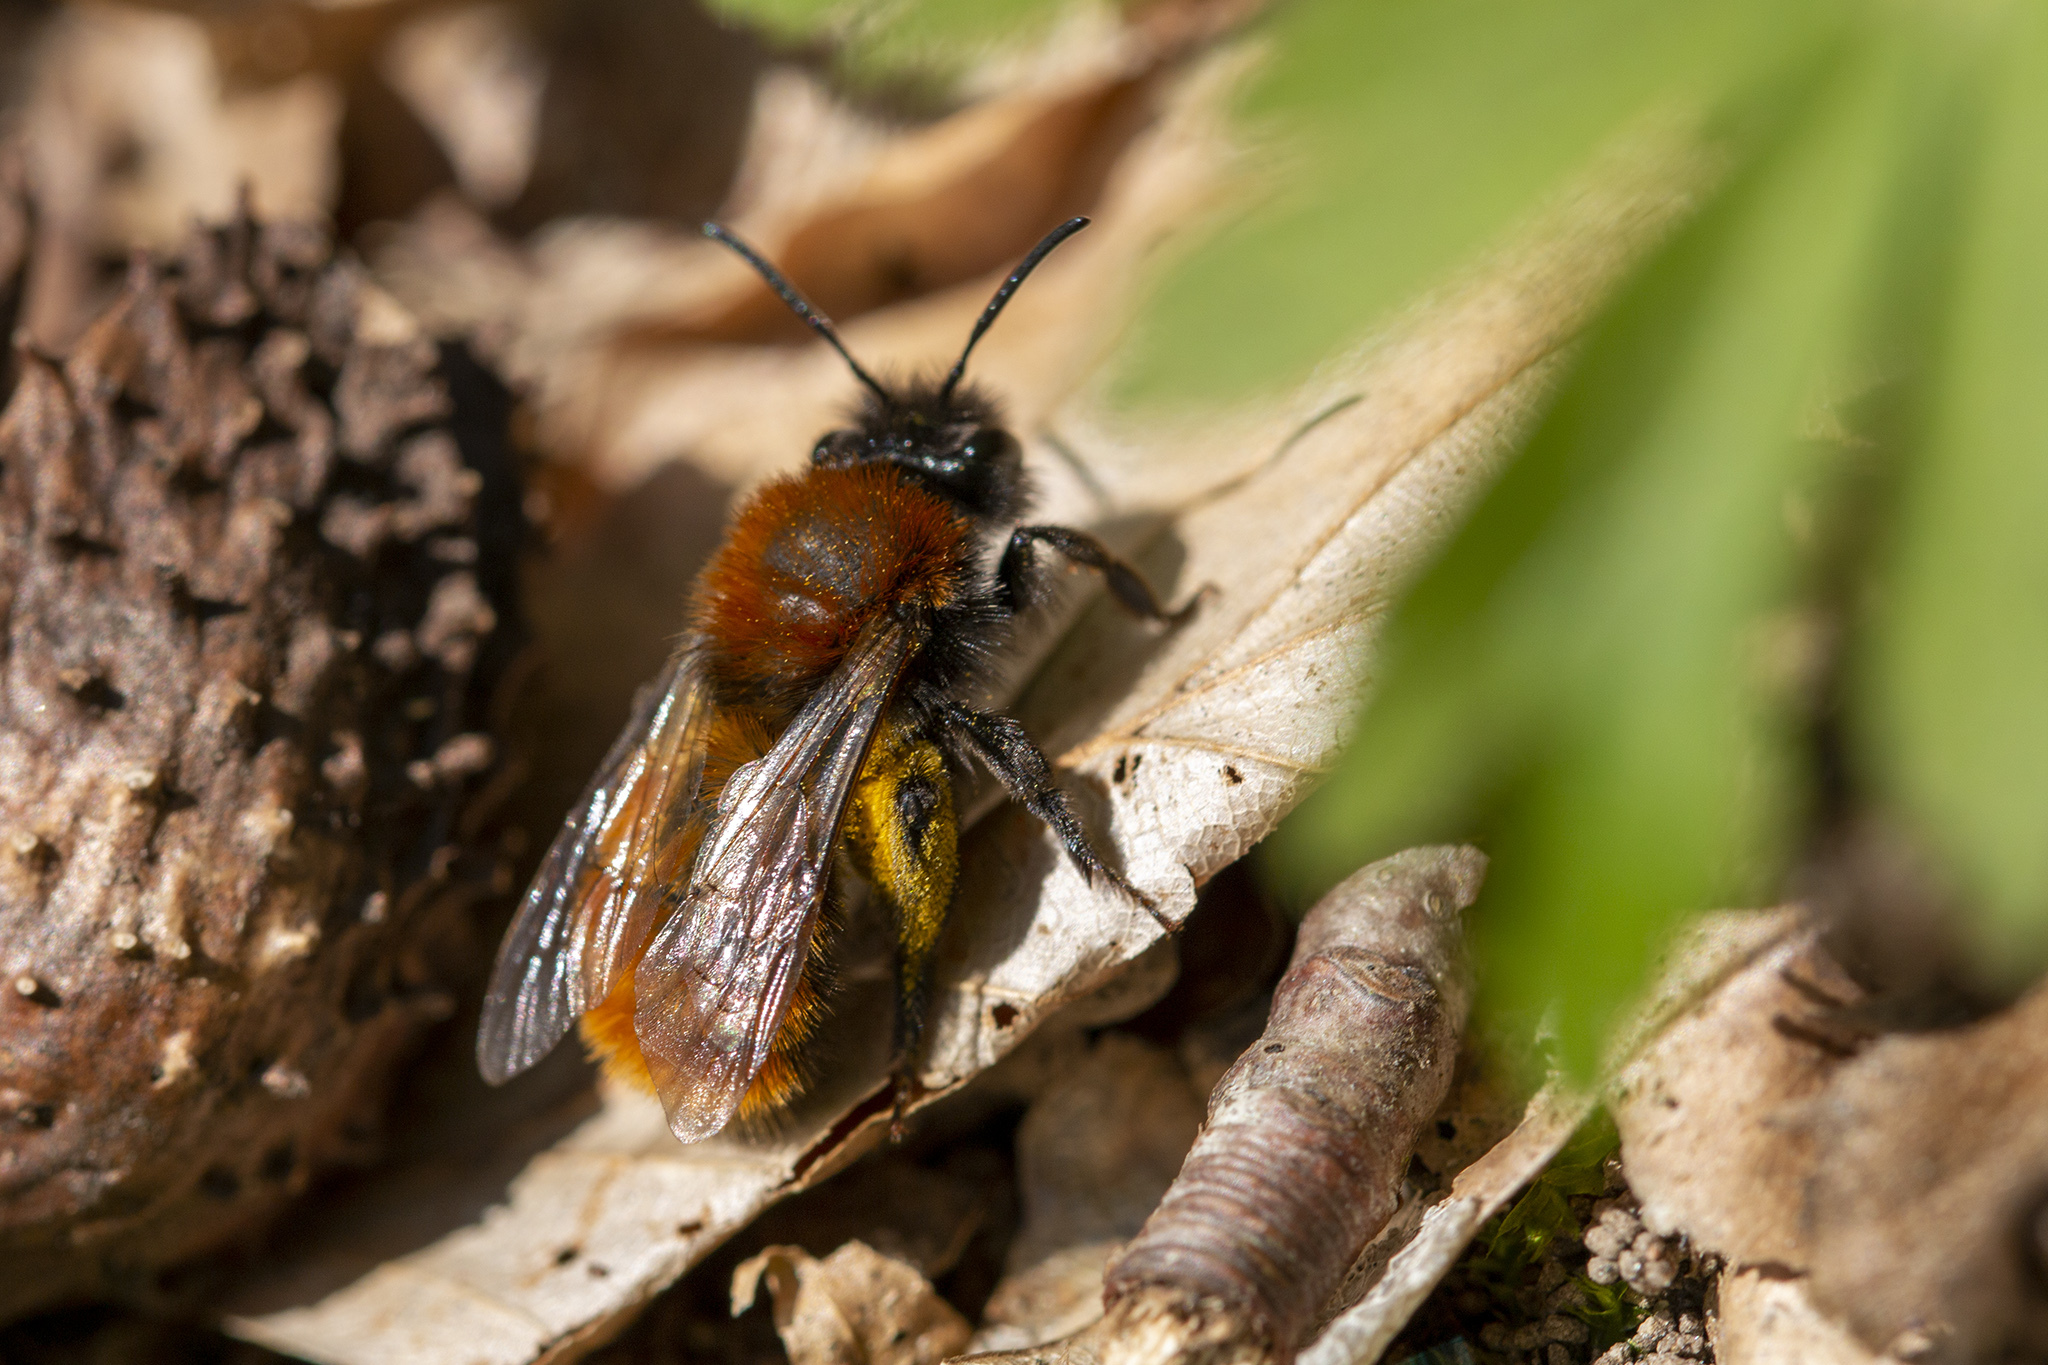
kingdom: Animalia
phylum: Arthropoda
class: Insecta
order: Hymenoptera
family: Andrenidae
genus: Andrena
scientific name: Andrena fulva
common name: Tawny mining bee
